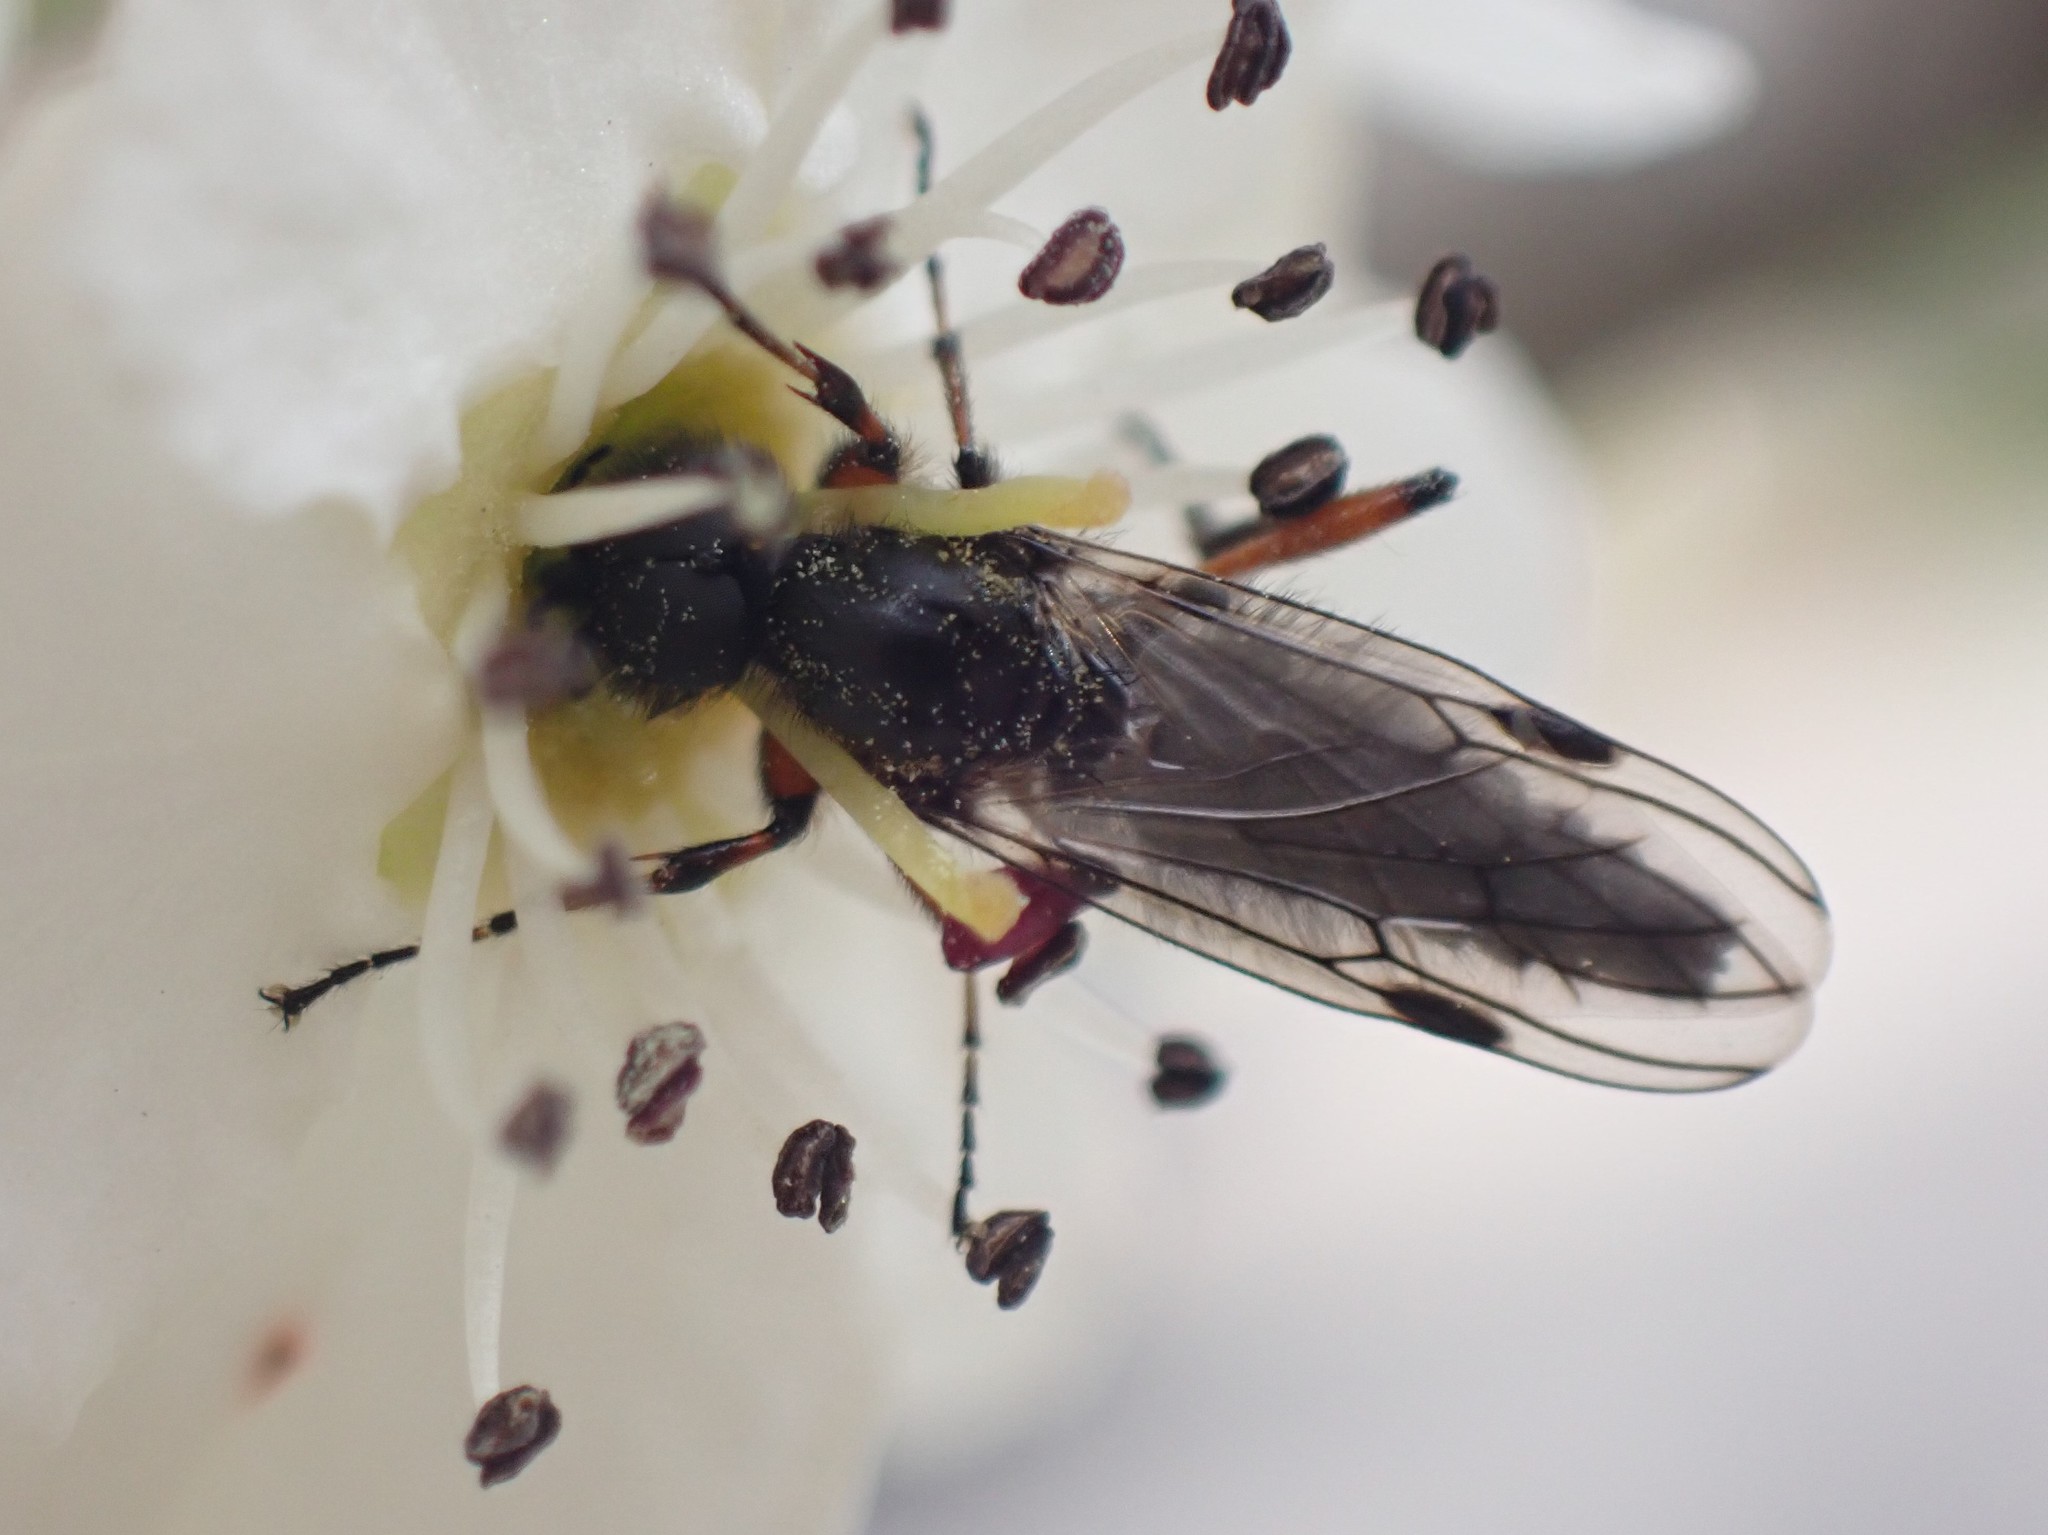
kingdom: Animalia
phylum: Arthropoda
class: Insecta
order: Diptera
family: Bibionidae
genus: Bibio
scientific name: Bibio
